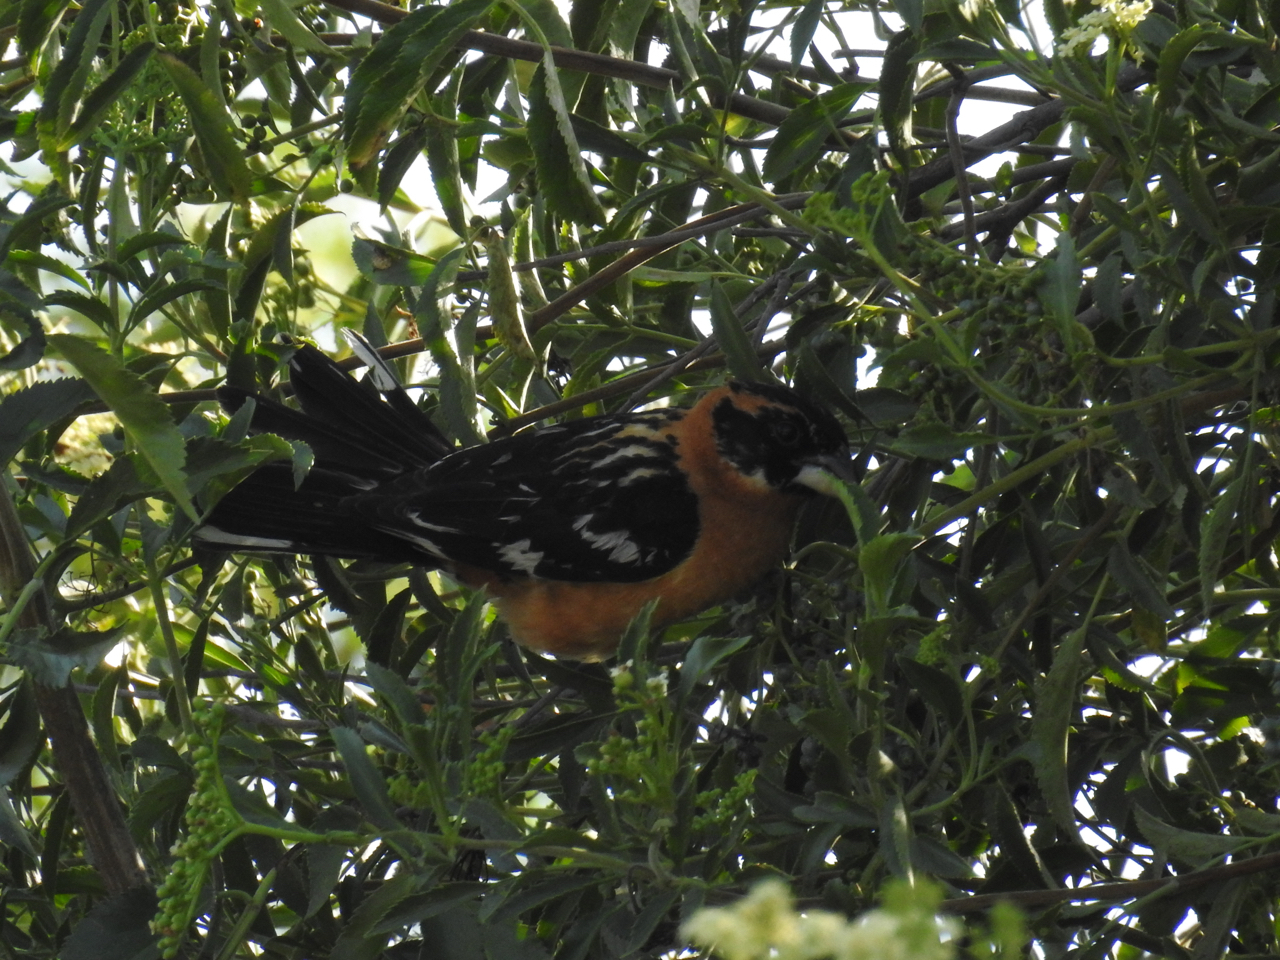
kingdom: Animalia
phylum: Chordata
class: Aves
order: Passeriformes
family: Cardinalidae
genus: Pheucticus
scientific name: Pheucticus melanocephalus
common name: Black-headed grosbeak
